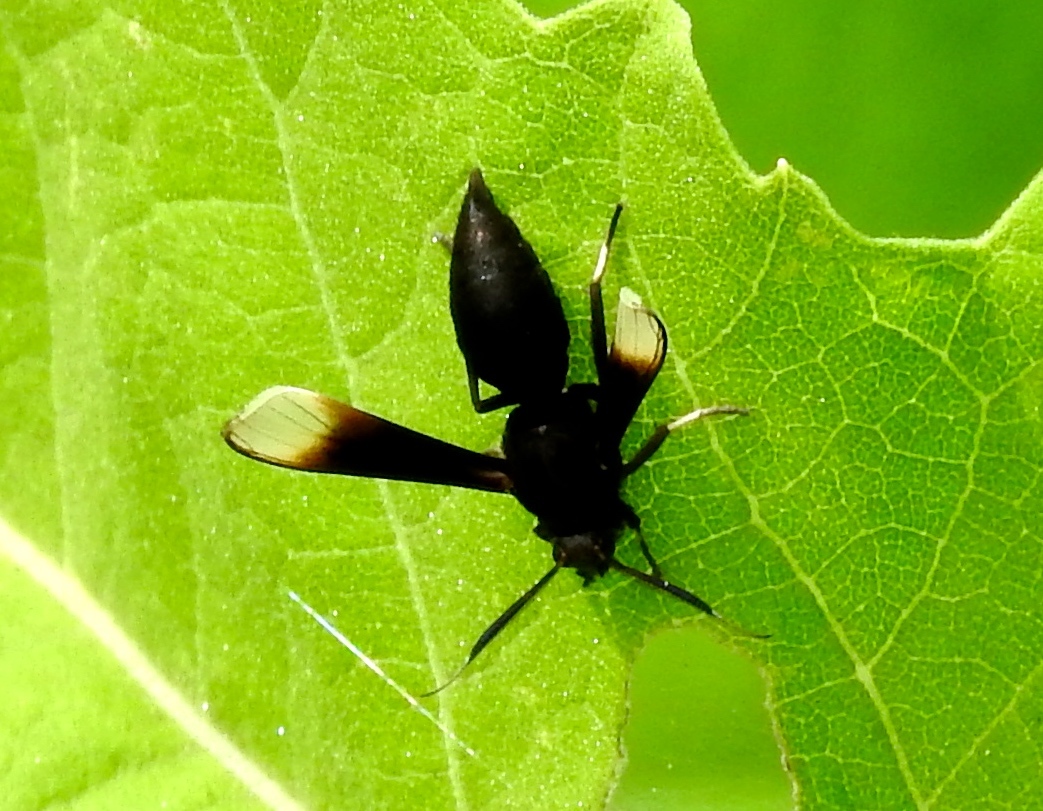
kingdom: Animalia
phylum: Arthropoda
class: Insecta
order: Lepidoptera
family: Erebidae
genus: Pseudosphex
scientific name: Pseudosphex strigosa
